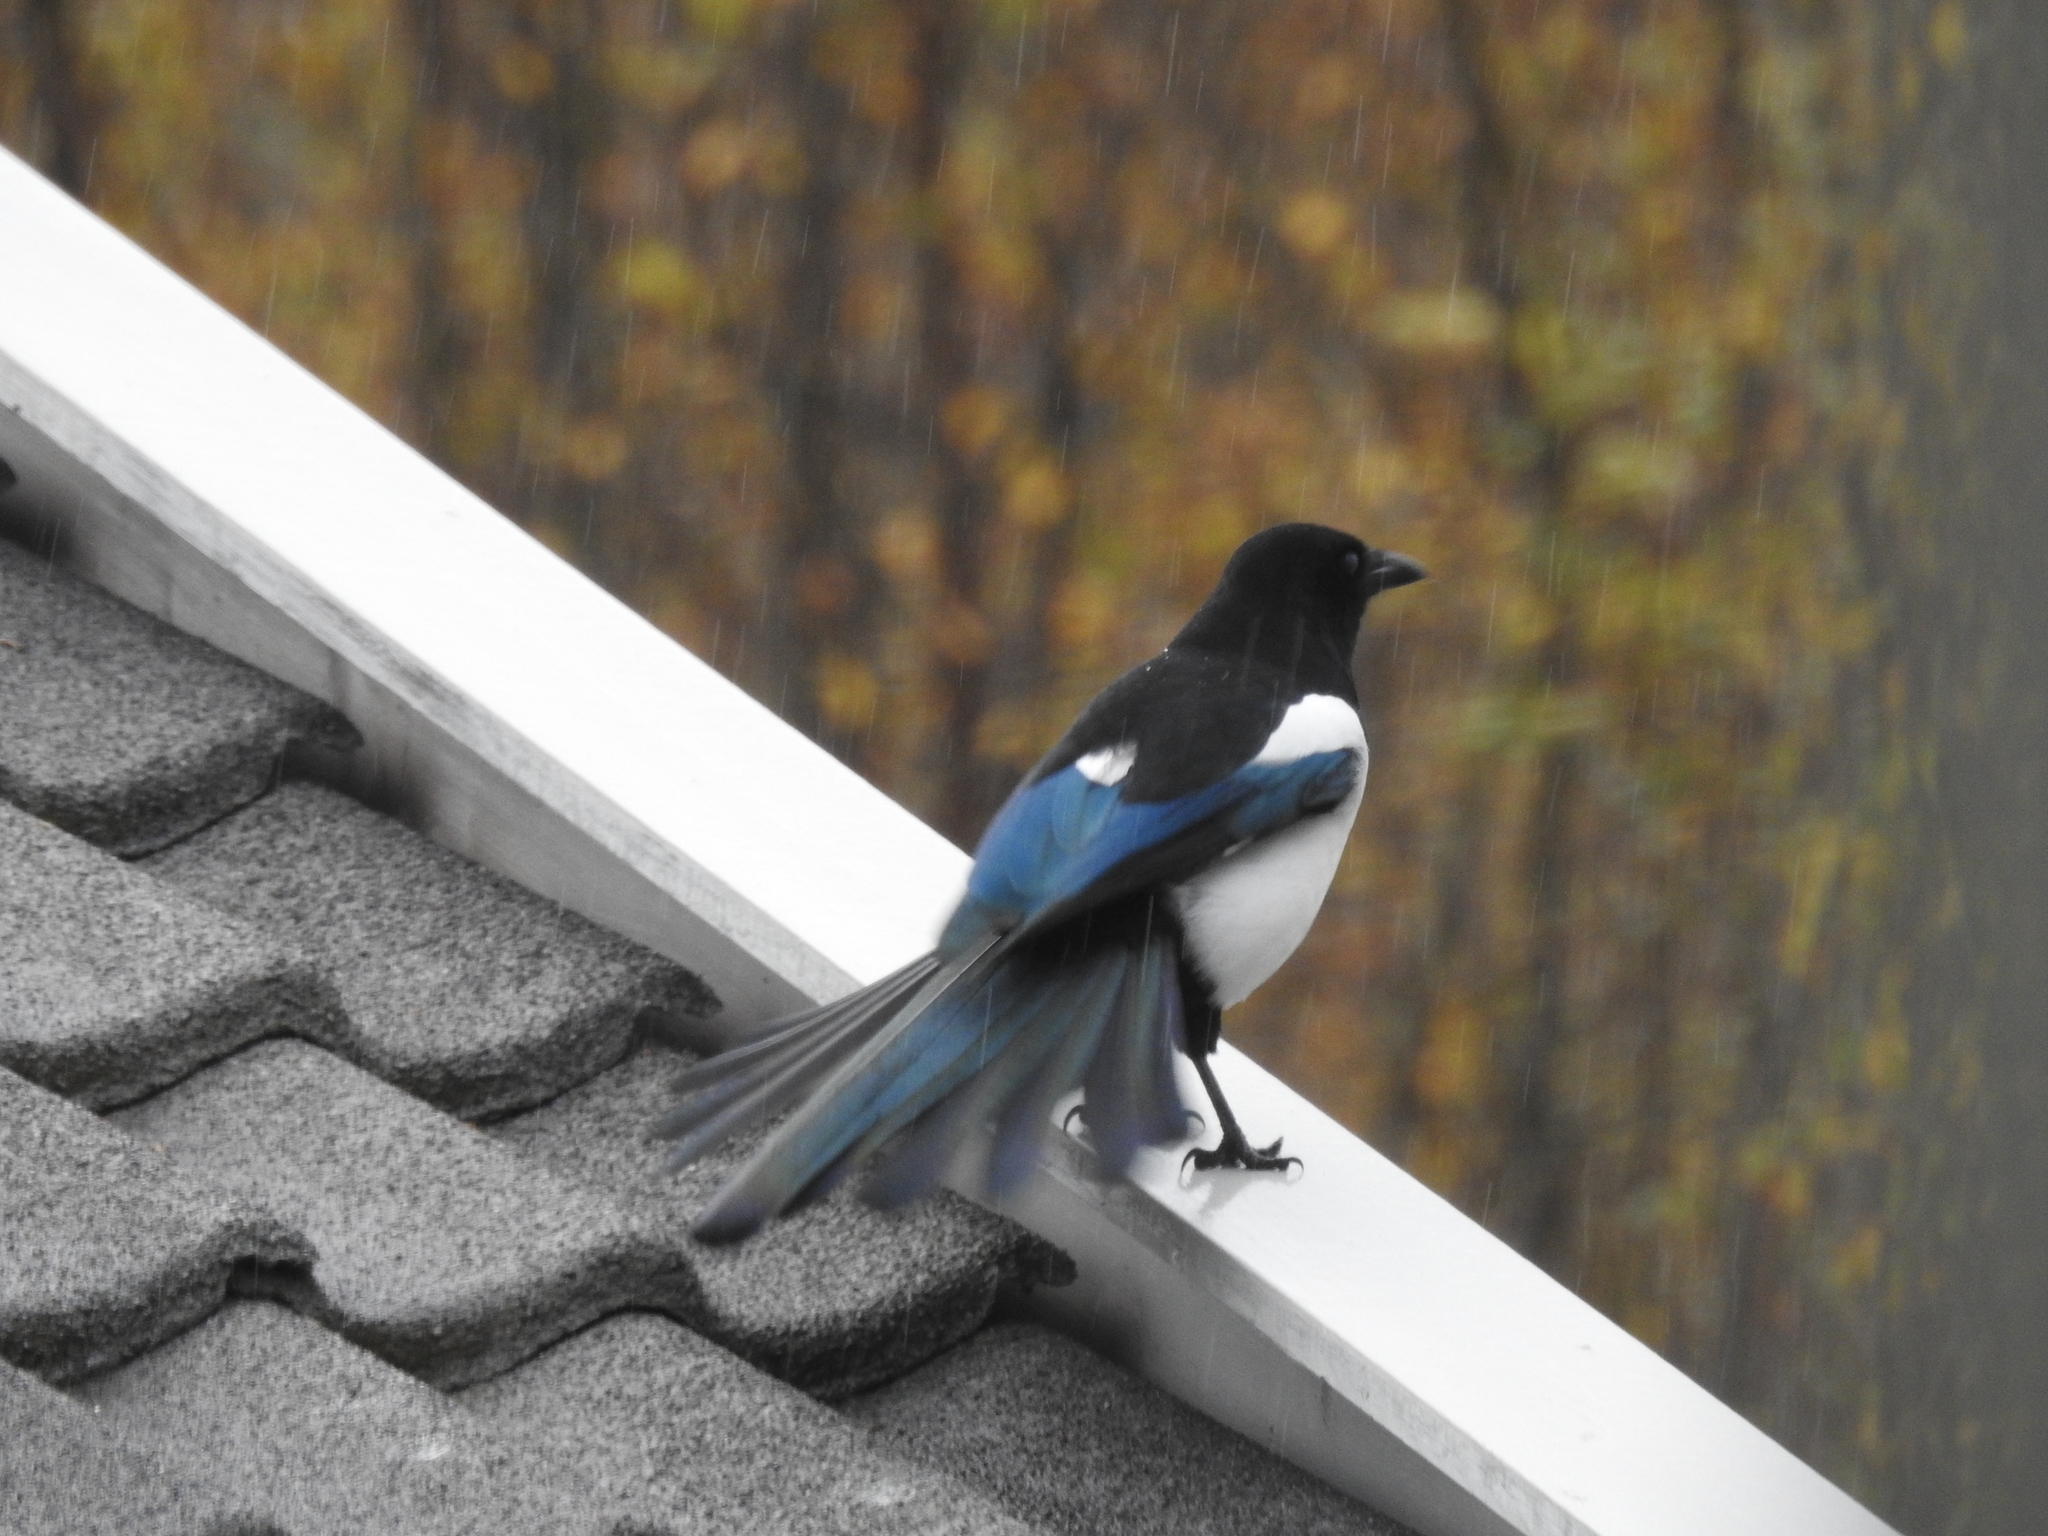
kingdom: Animalia
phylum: Chordata
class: Aves
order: Passeriformes
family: Corvidae
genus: Pica
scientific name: Pica pica
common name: Eurasian magpie
